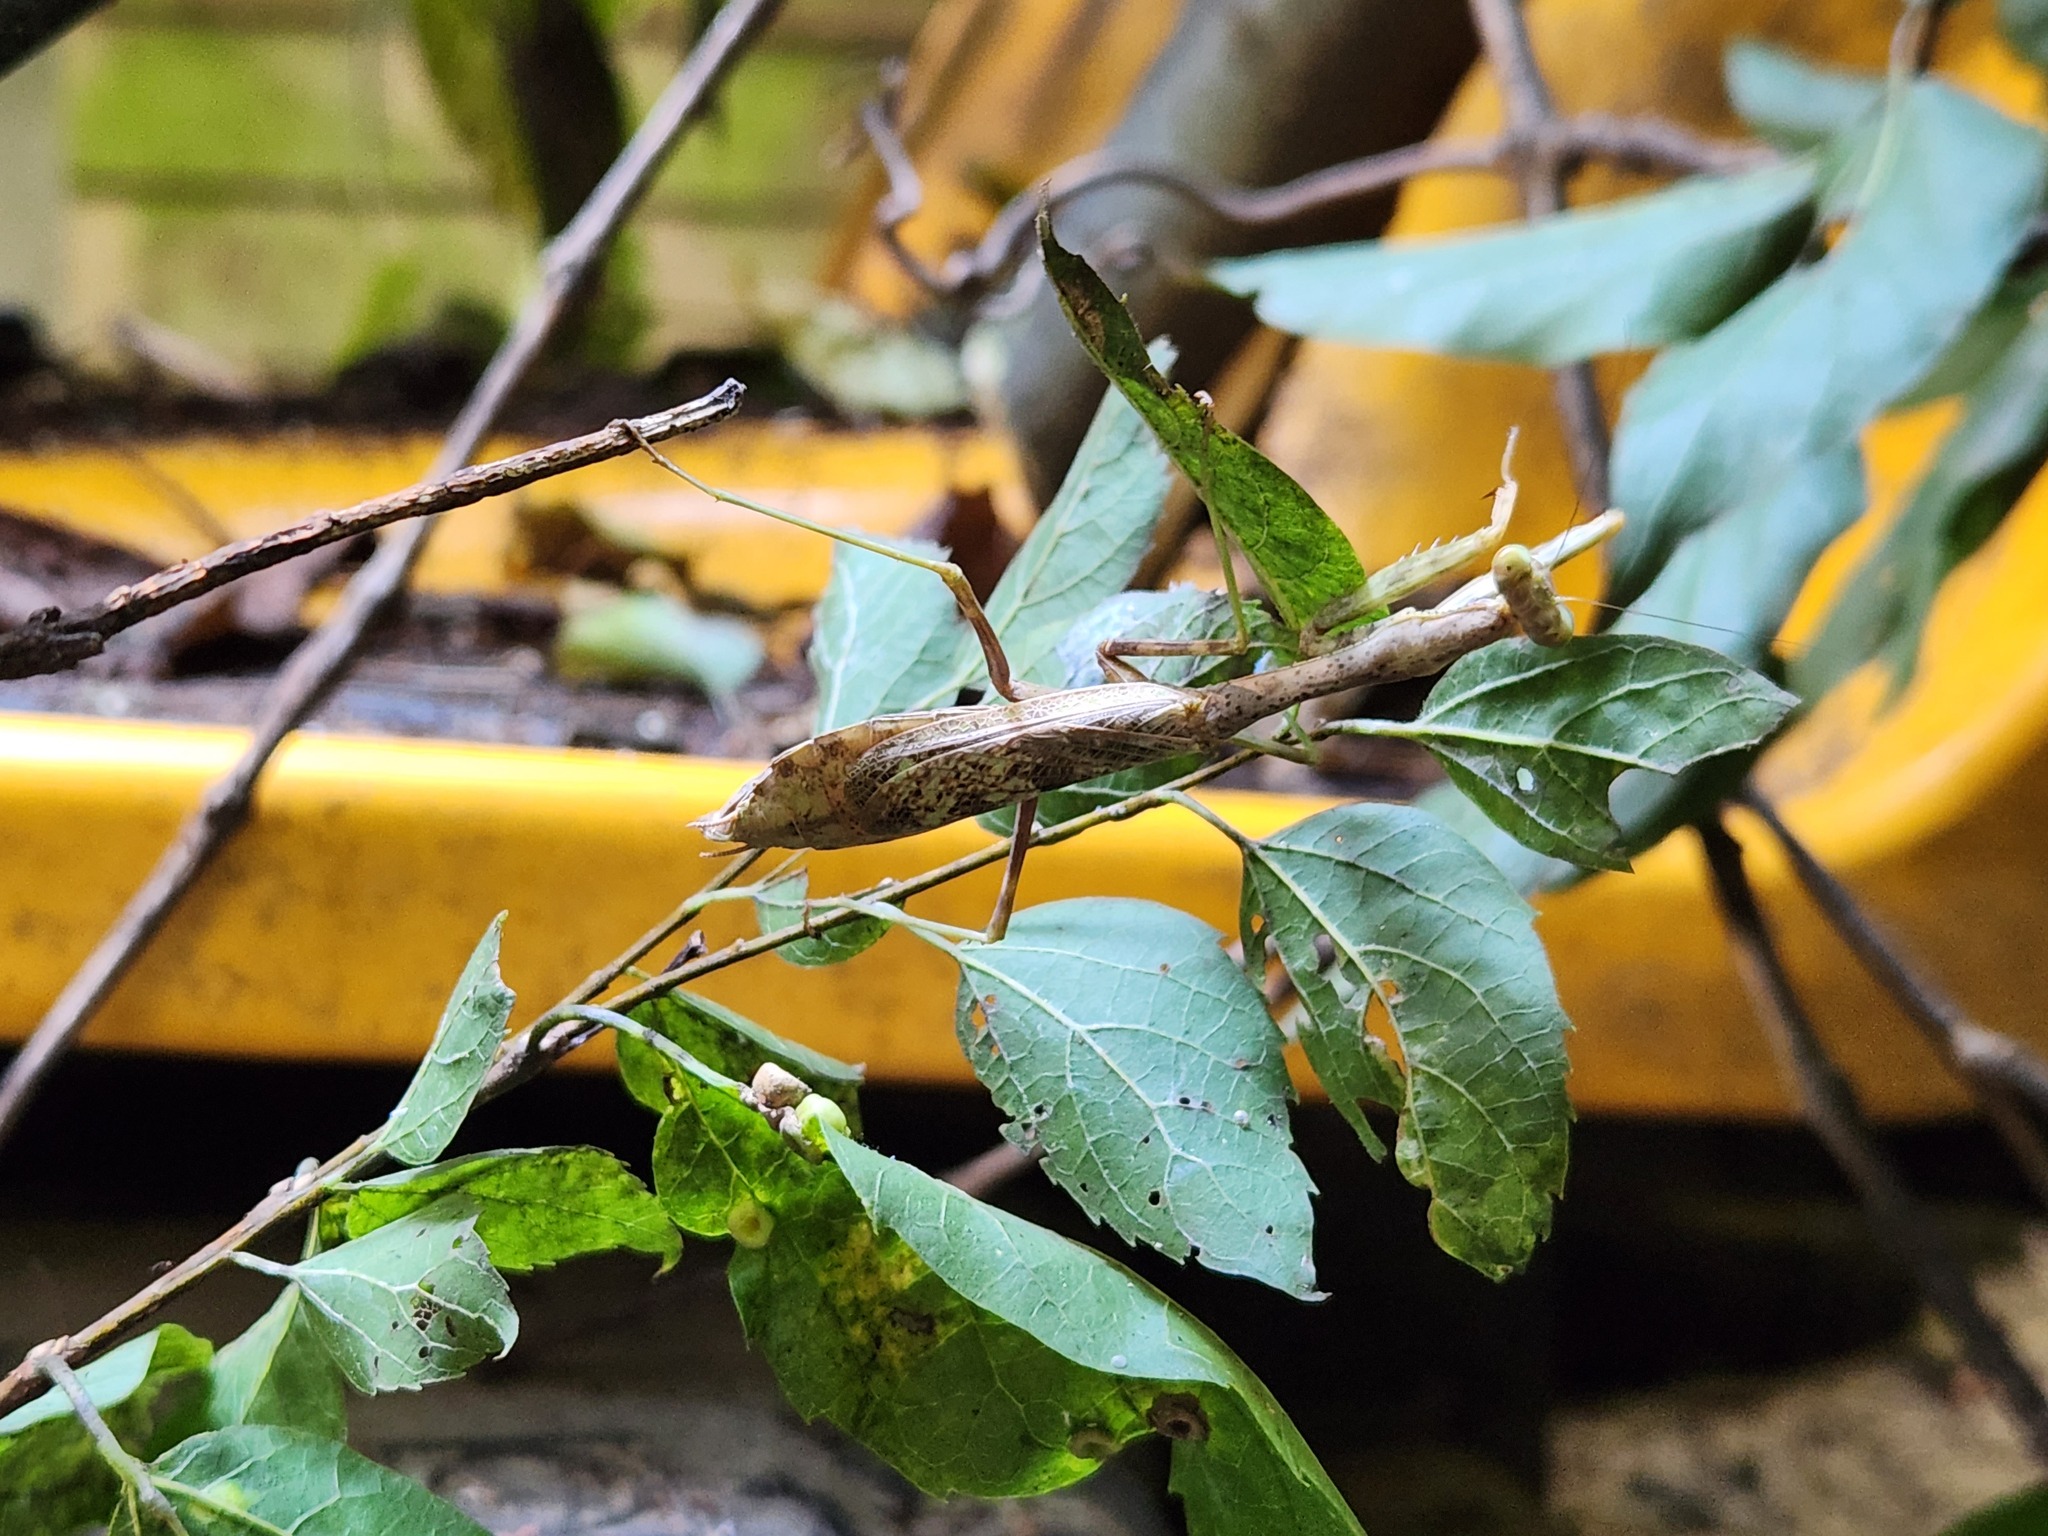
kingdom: Animalia
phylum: Arthropoda
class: Insecta
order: Mantodea
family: Mantidae
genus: Stagmomantis
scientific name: Stagmomantis carolina
